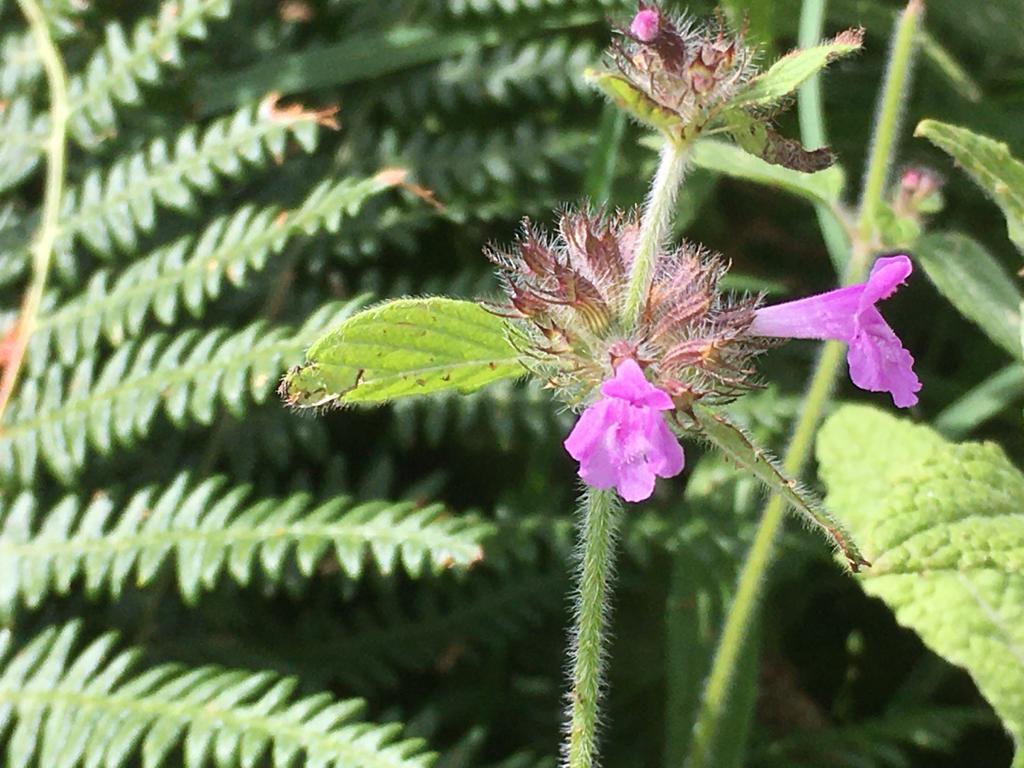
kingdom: Plantae
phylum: Tracheophyta
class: Magnoliopsida
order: Lamiales
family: Lamiaceae
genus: Clinopodium
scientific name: Clinopodium vulgare
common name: Wild basil
